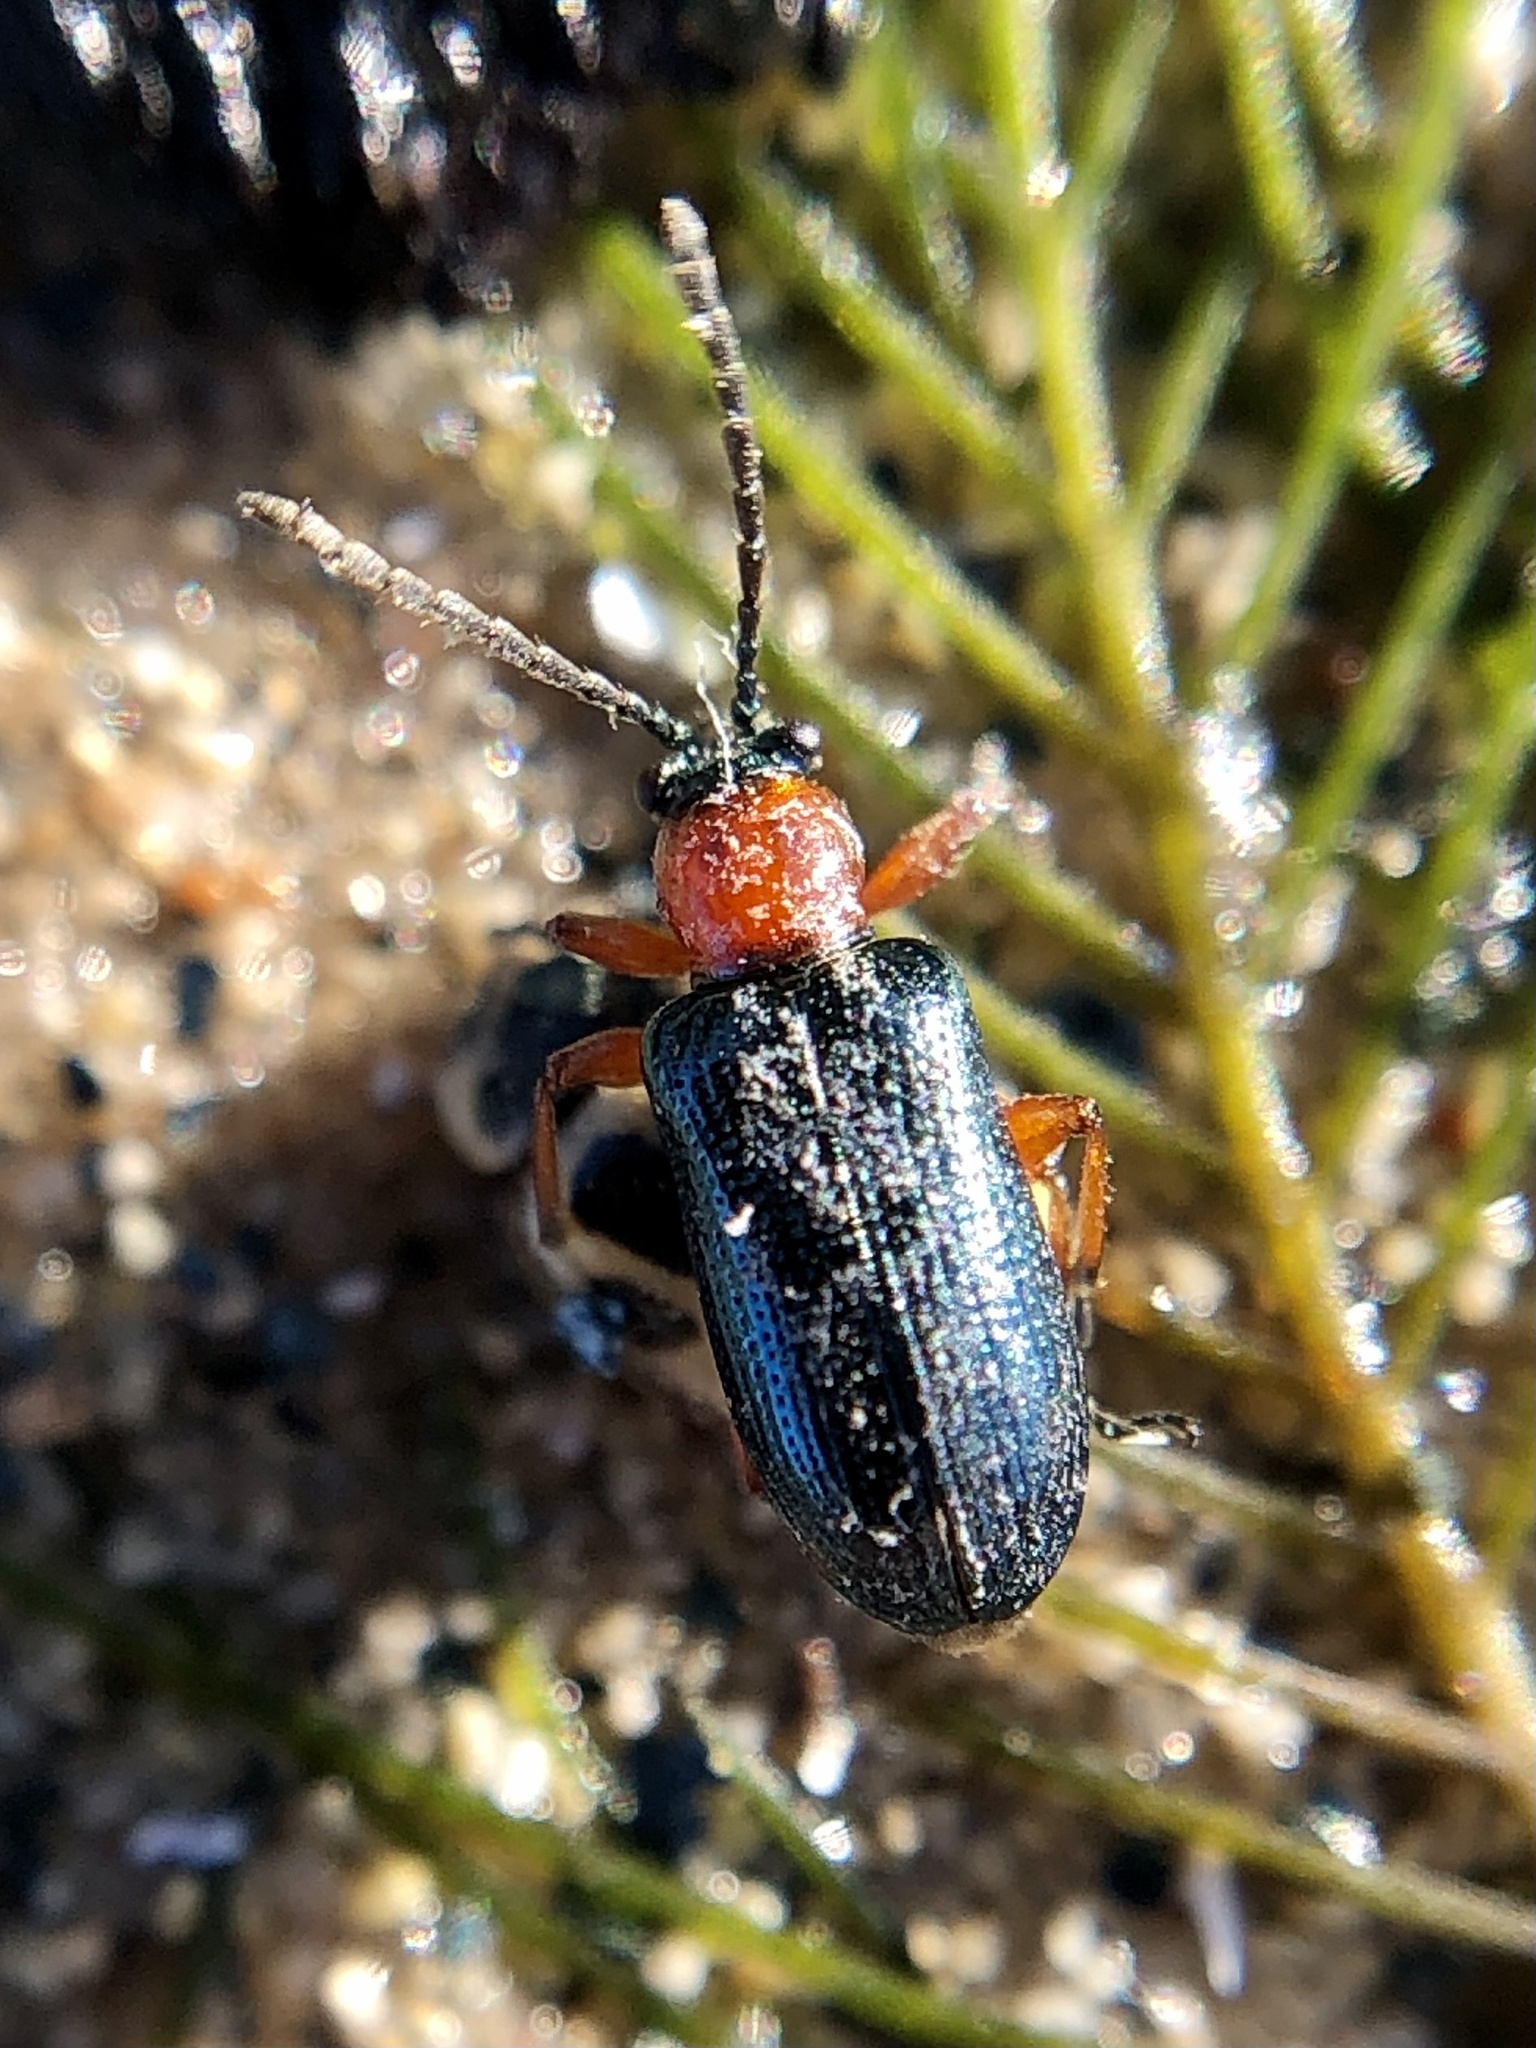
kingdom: Animalia
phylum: Arthropoda
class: Insecta
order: Coleoptera
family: Chrysomelidae
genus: Oulema
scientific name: Oulema melanopus
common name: Cereal leaf beetle
